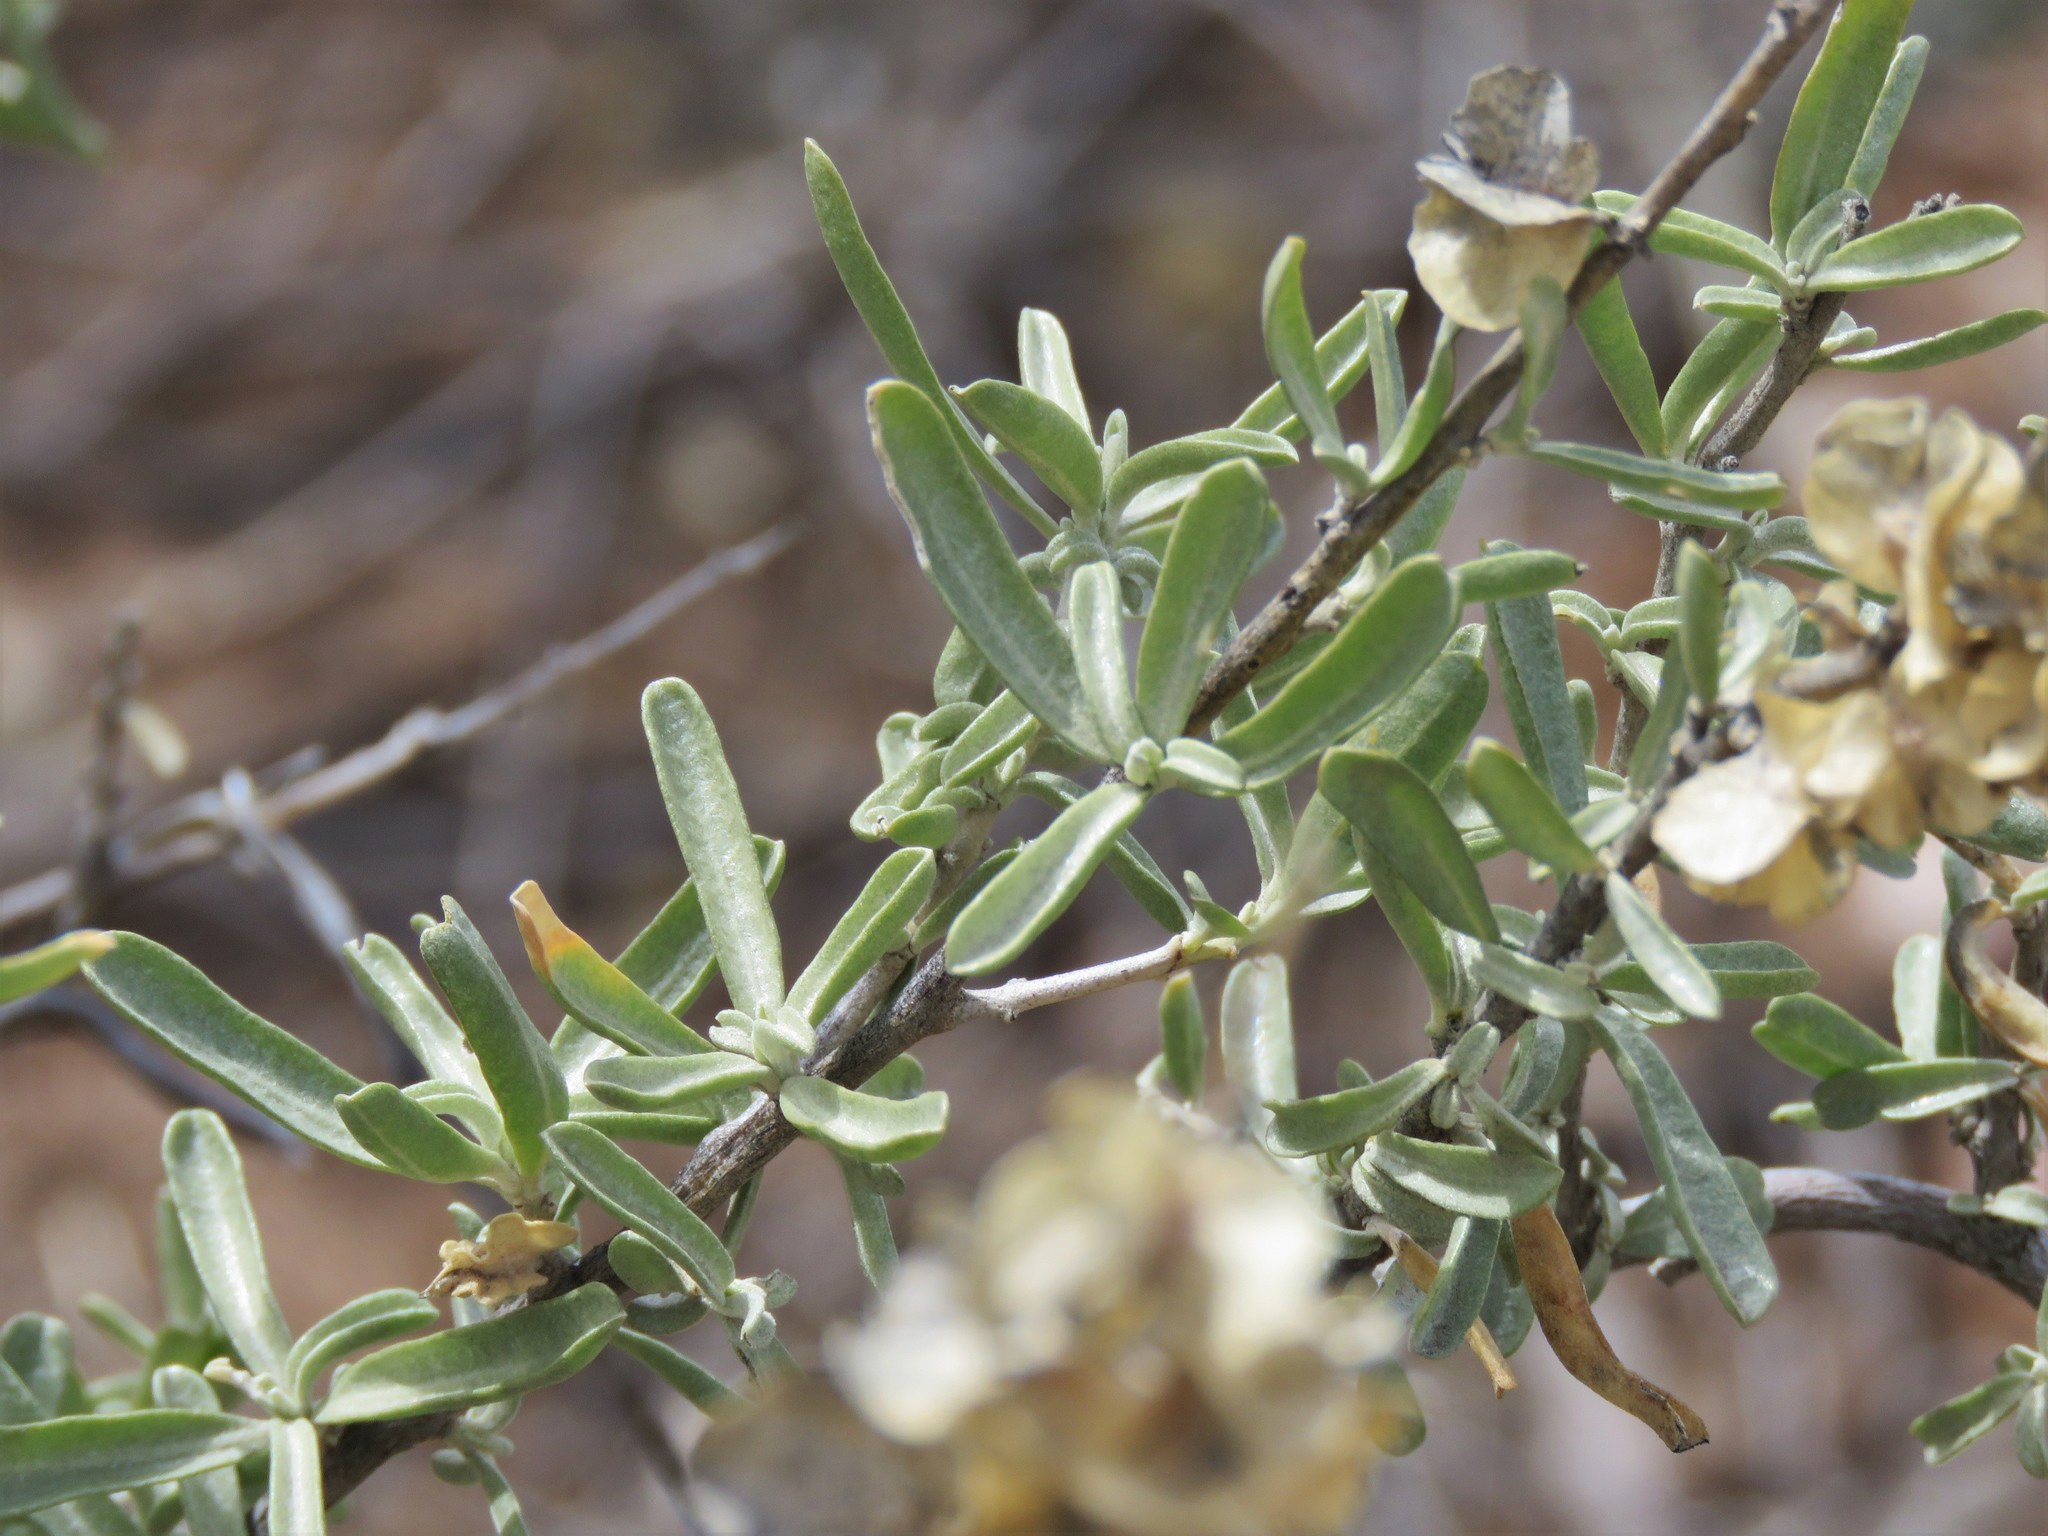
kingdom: Plantae
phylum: Tracheophyta
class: Magnoliopsida
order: Caryophyllales
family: Amaranthaceae
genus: Atriplex
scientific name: Atriplex canescens
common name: Four-wing saltbush
